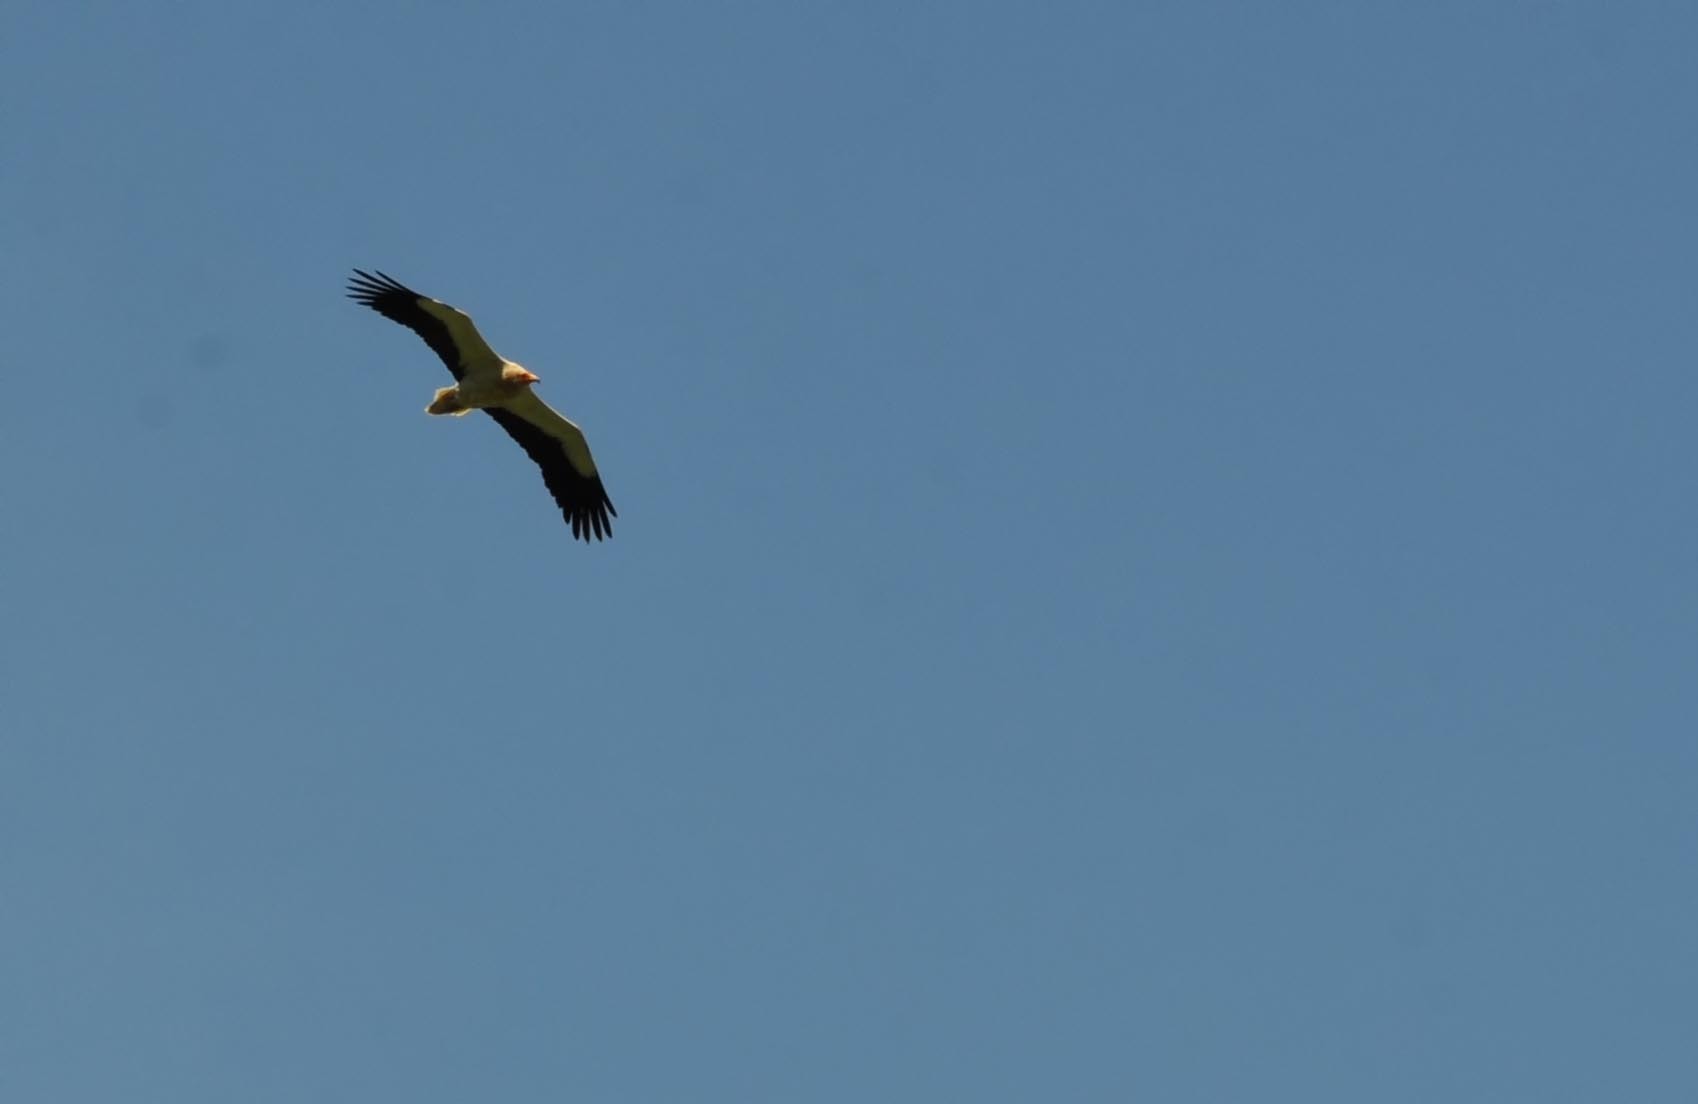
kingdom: Animalia
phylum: Chordata
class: Aves
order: Accipitriformes
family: Accipitridae
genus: Neophron
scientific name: Neophron percnopterus
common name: Egyptian vulture
